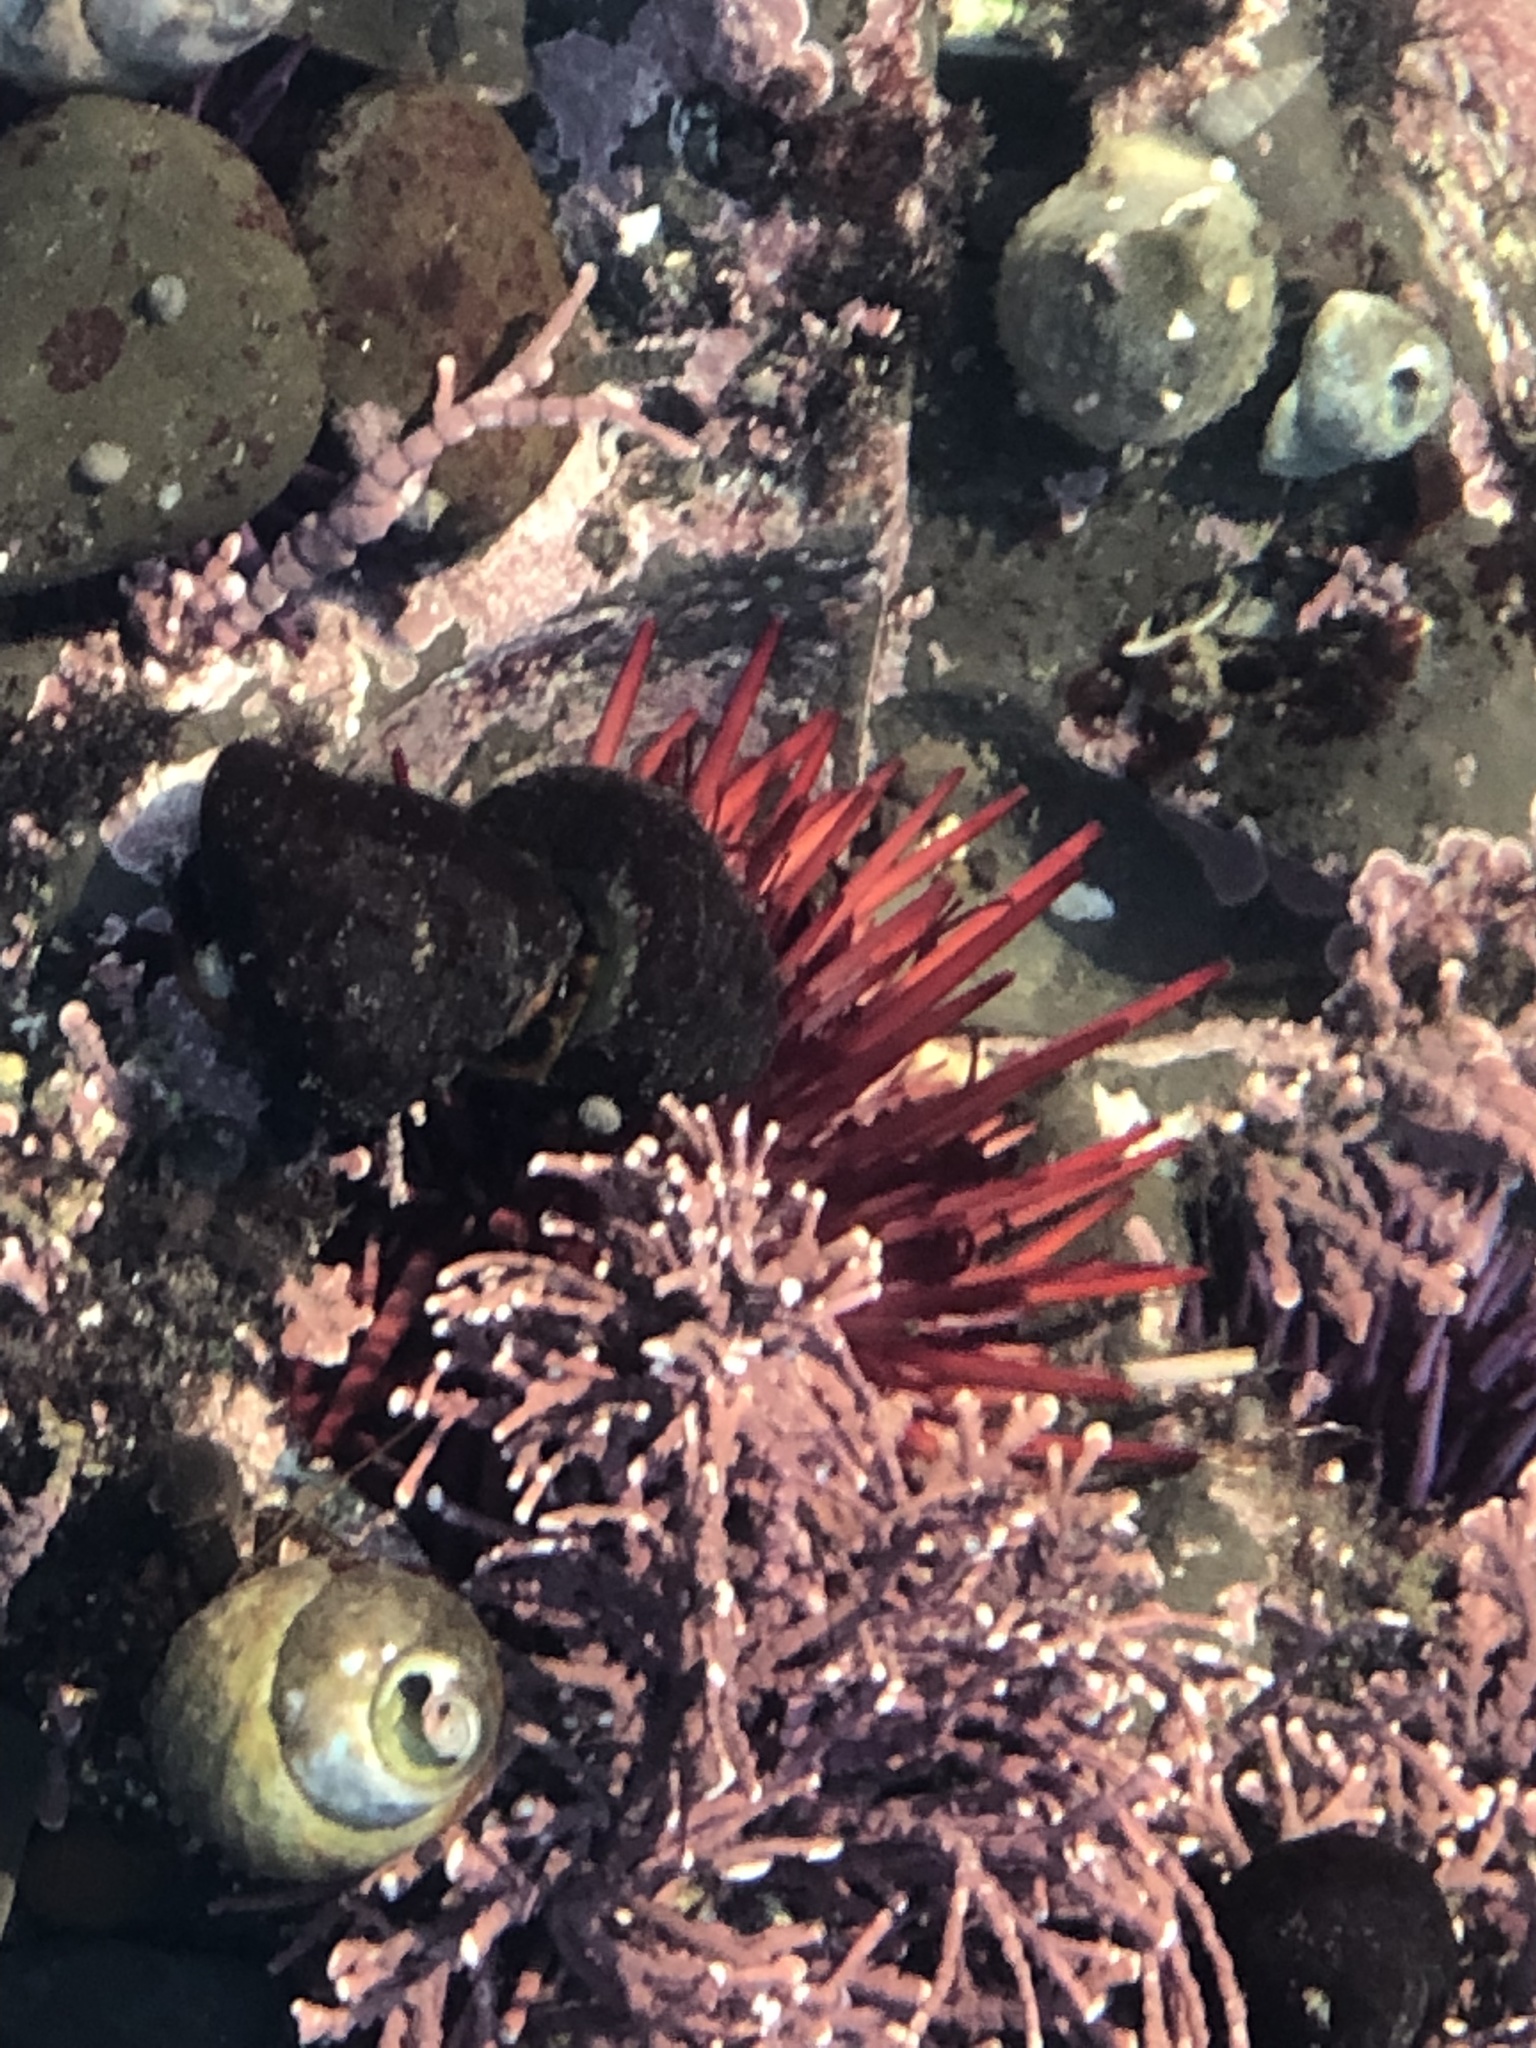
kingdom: Animalia
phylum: Echinodermata
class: Echinoidea
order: Camarodonta
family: Strongylocentrotidae
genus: Mesocentrotus
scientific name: Mesocentrotus franciscanus
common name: Red sea urchin
